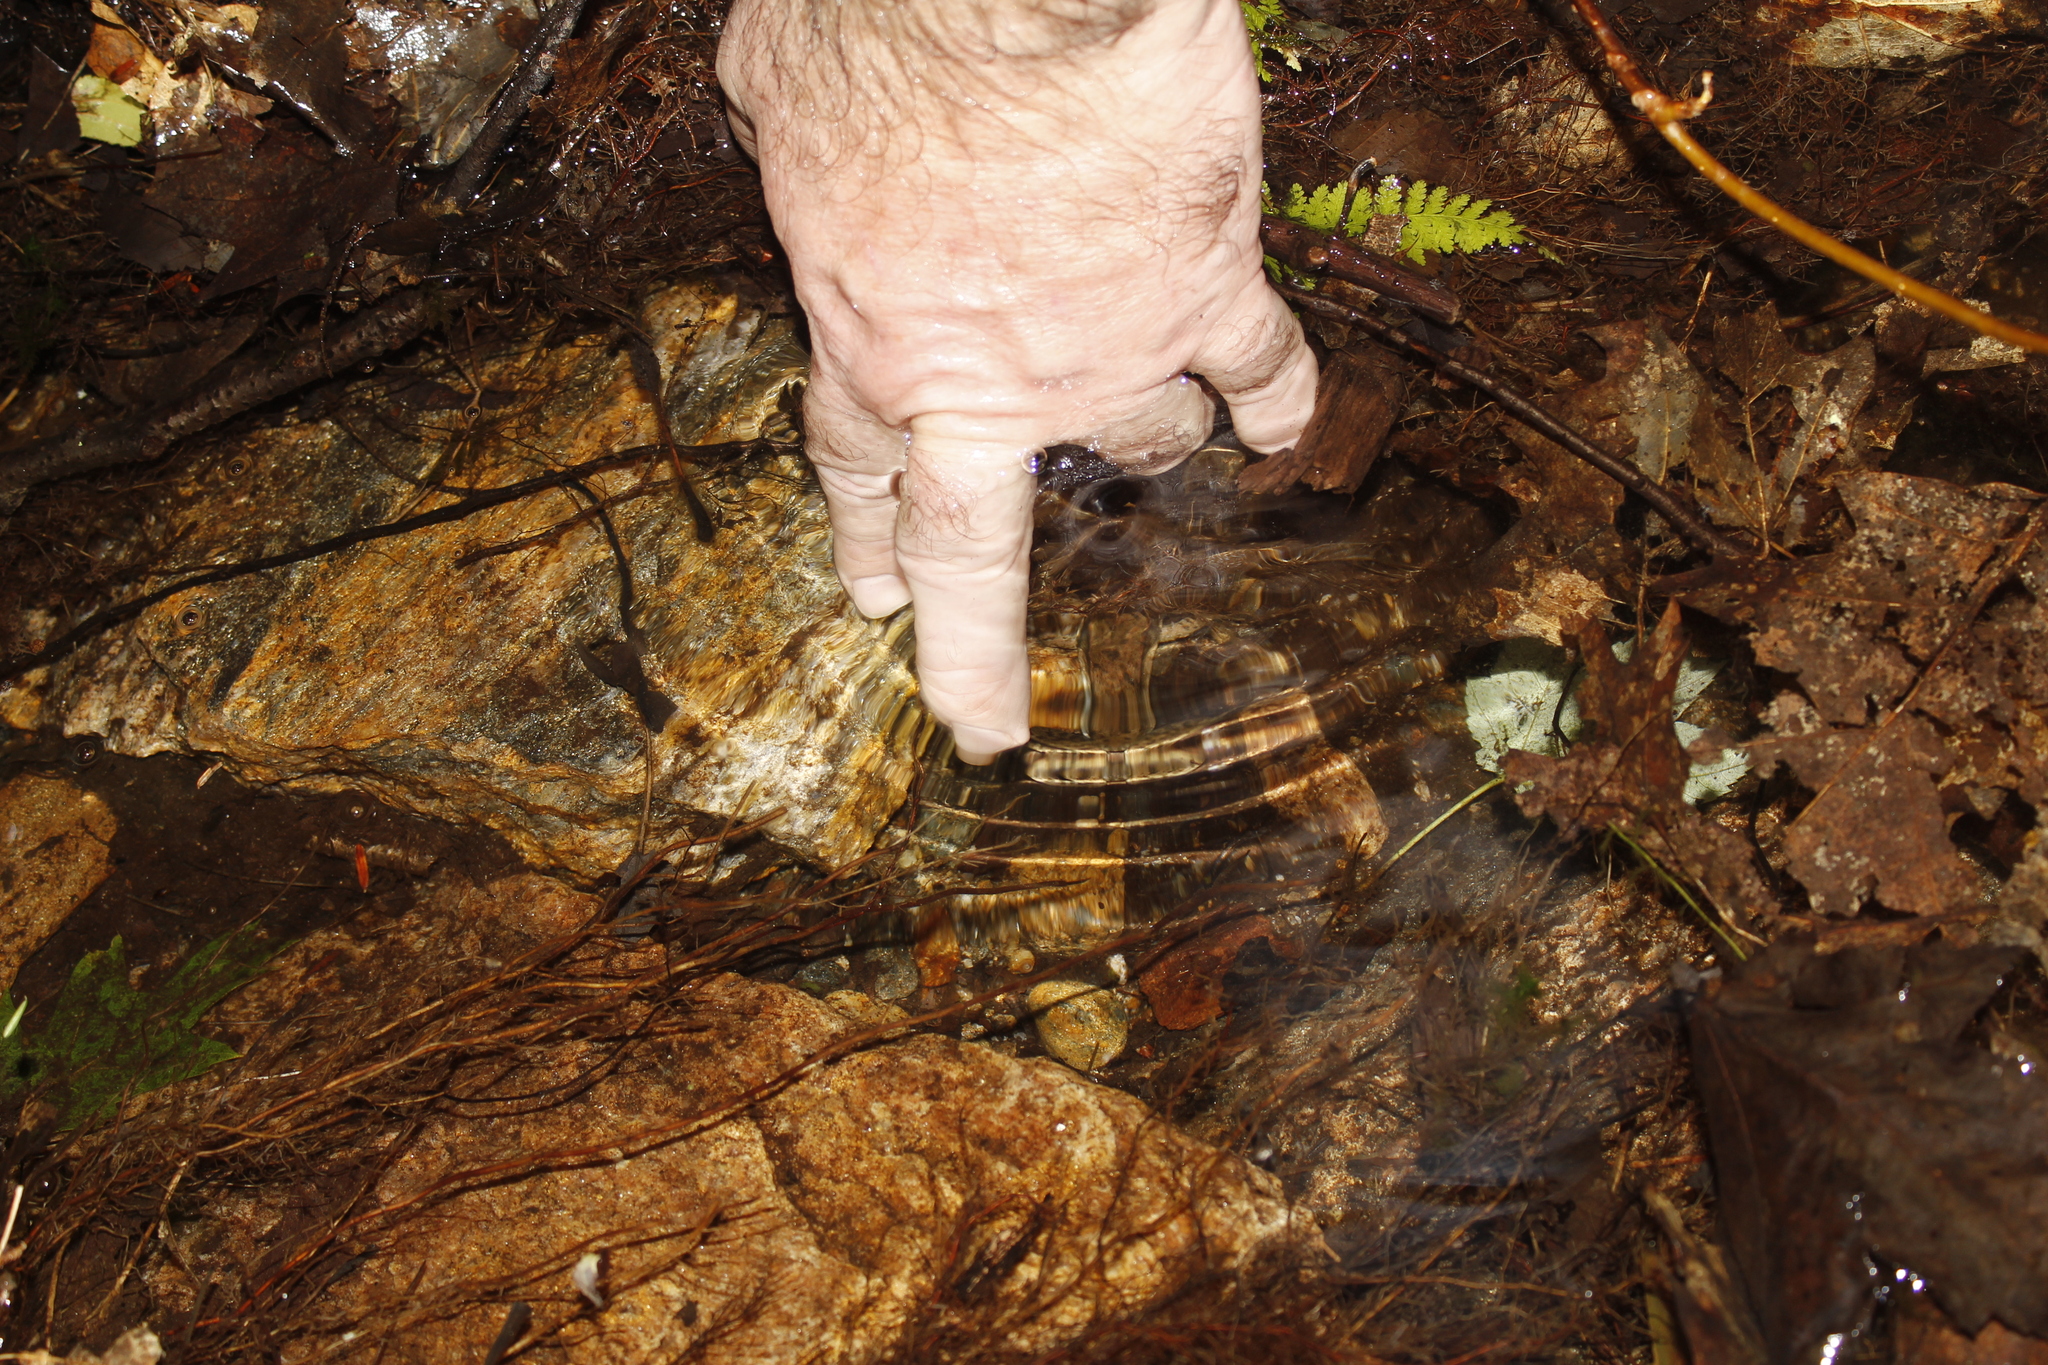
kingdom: Animalia
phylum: Chordata
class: Amphibia
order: Anura
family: Ranidae
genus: Lithobates
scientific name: Lithobates clamitans
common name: Green frog
